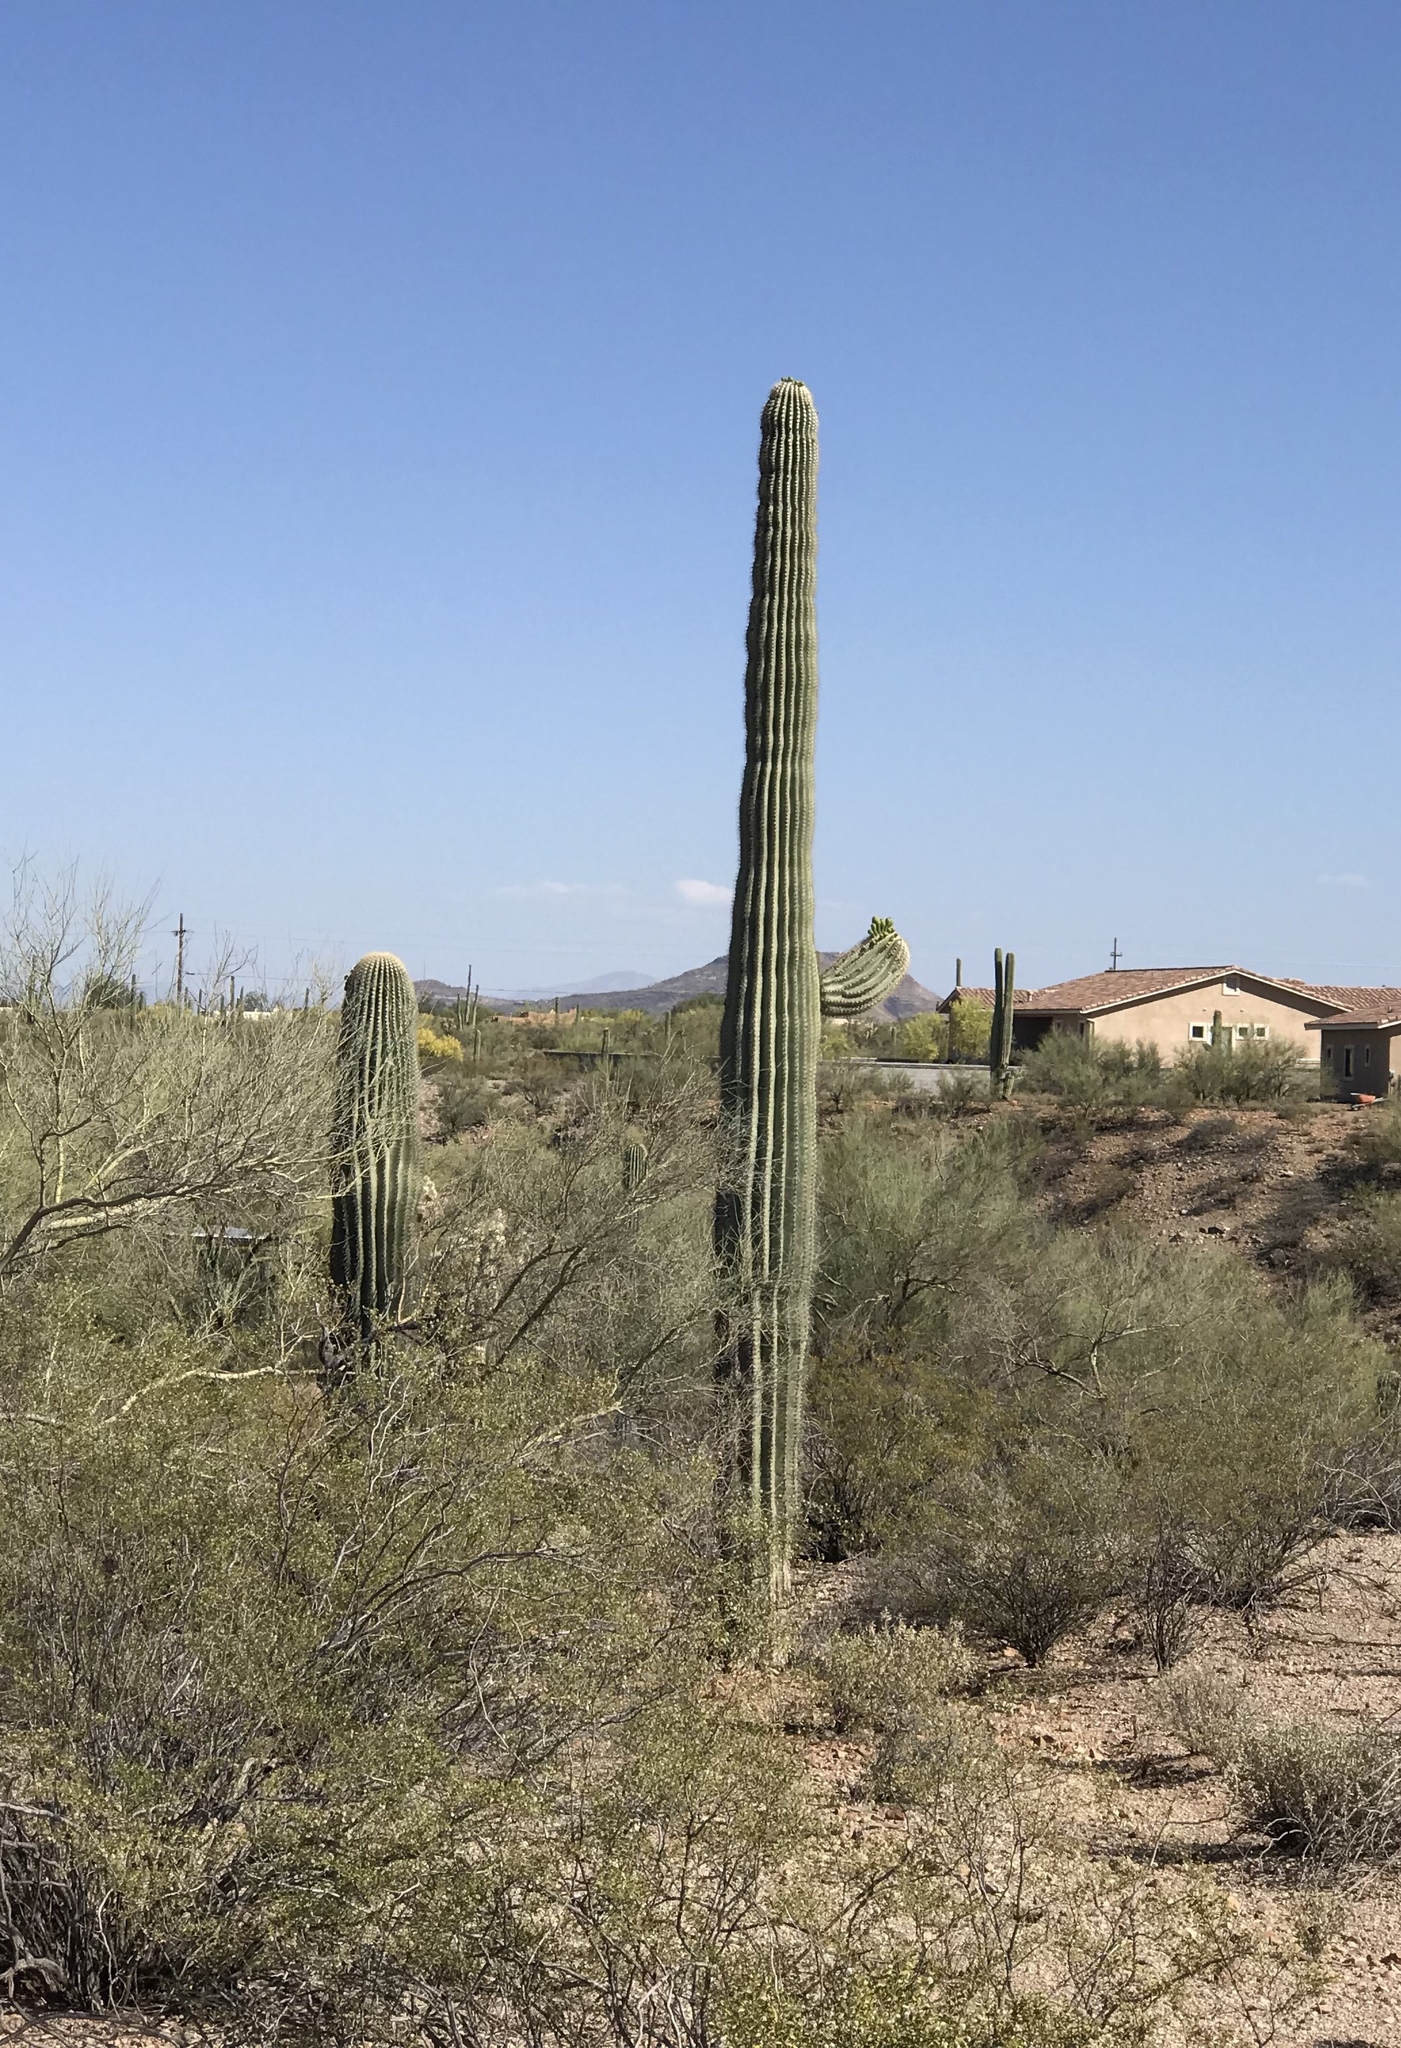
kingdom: Plantae
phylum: Tracheophyta
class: Magnoliopsida
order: Caryophyllales
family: Cactaceae
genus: Carnegiea
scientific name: Carnegiea gigantea
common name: Saguaro
